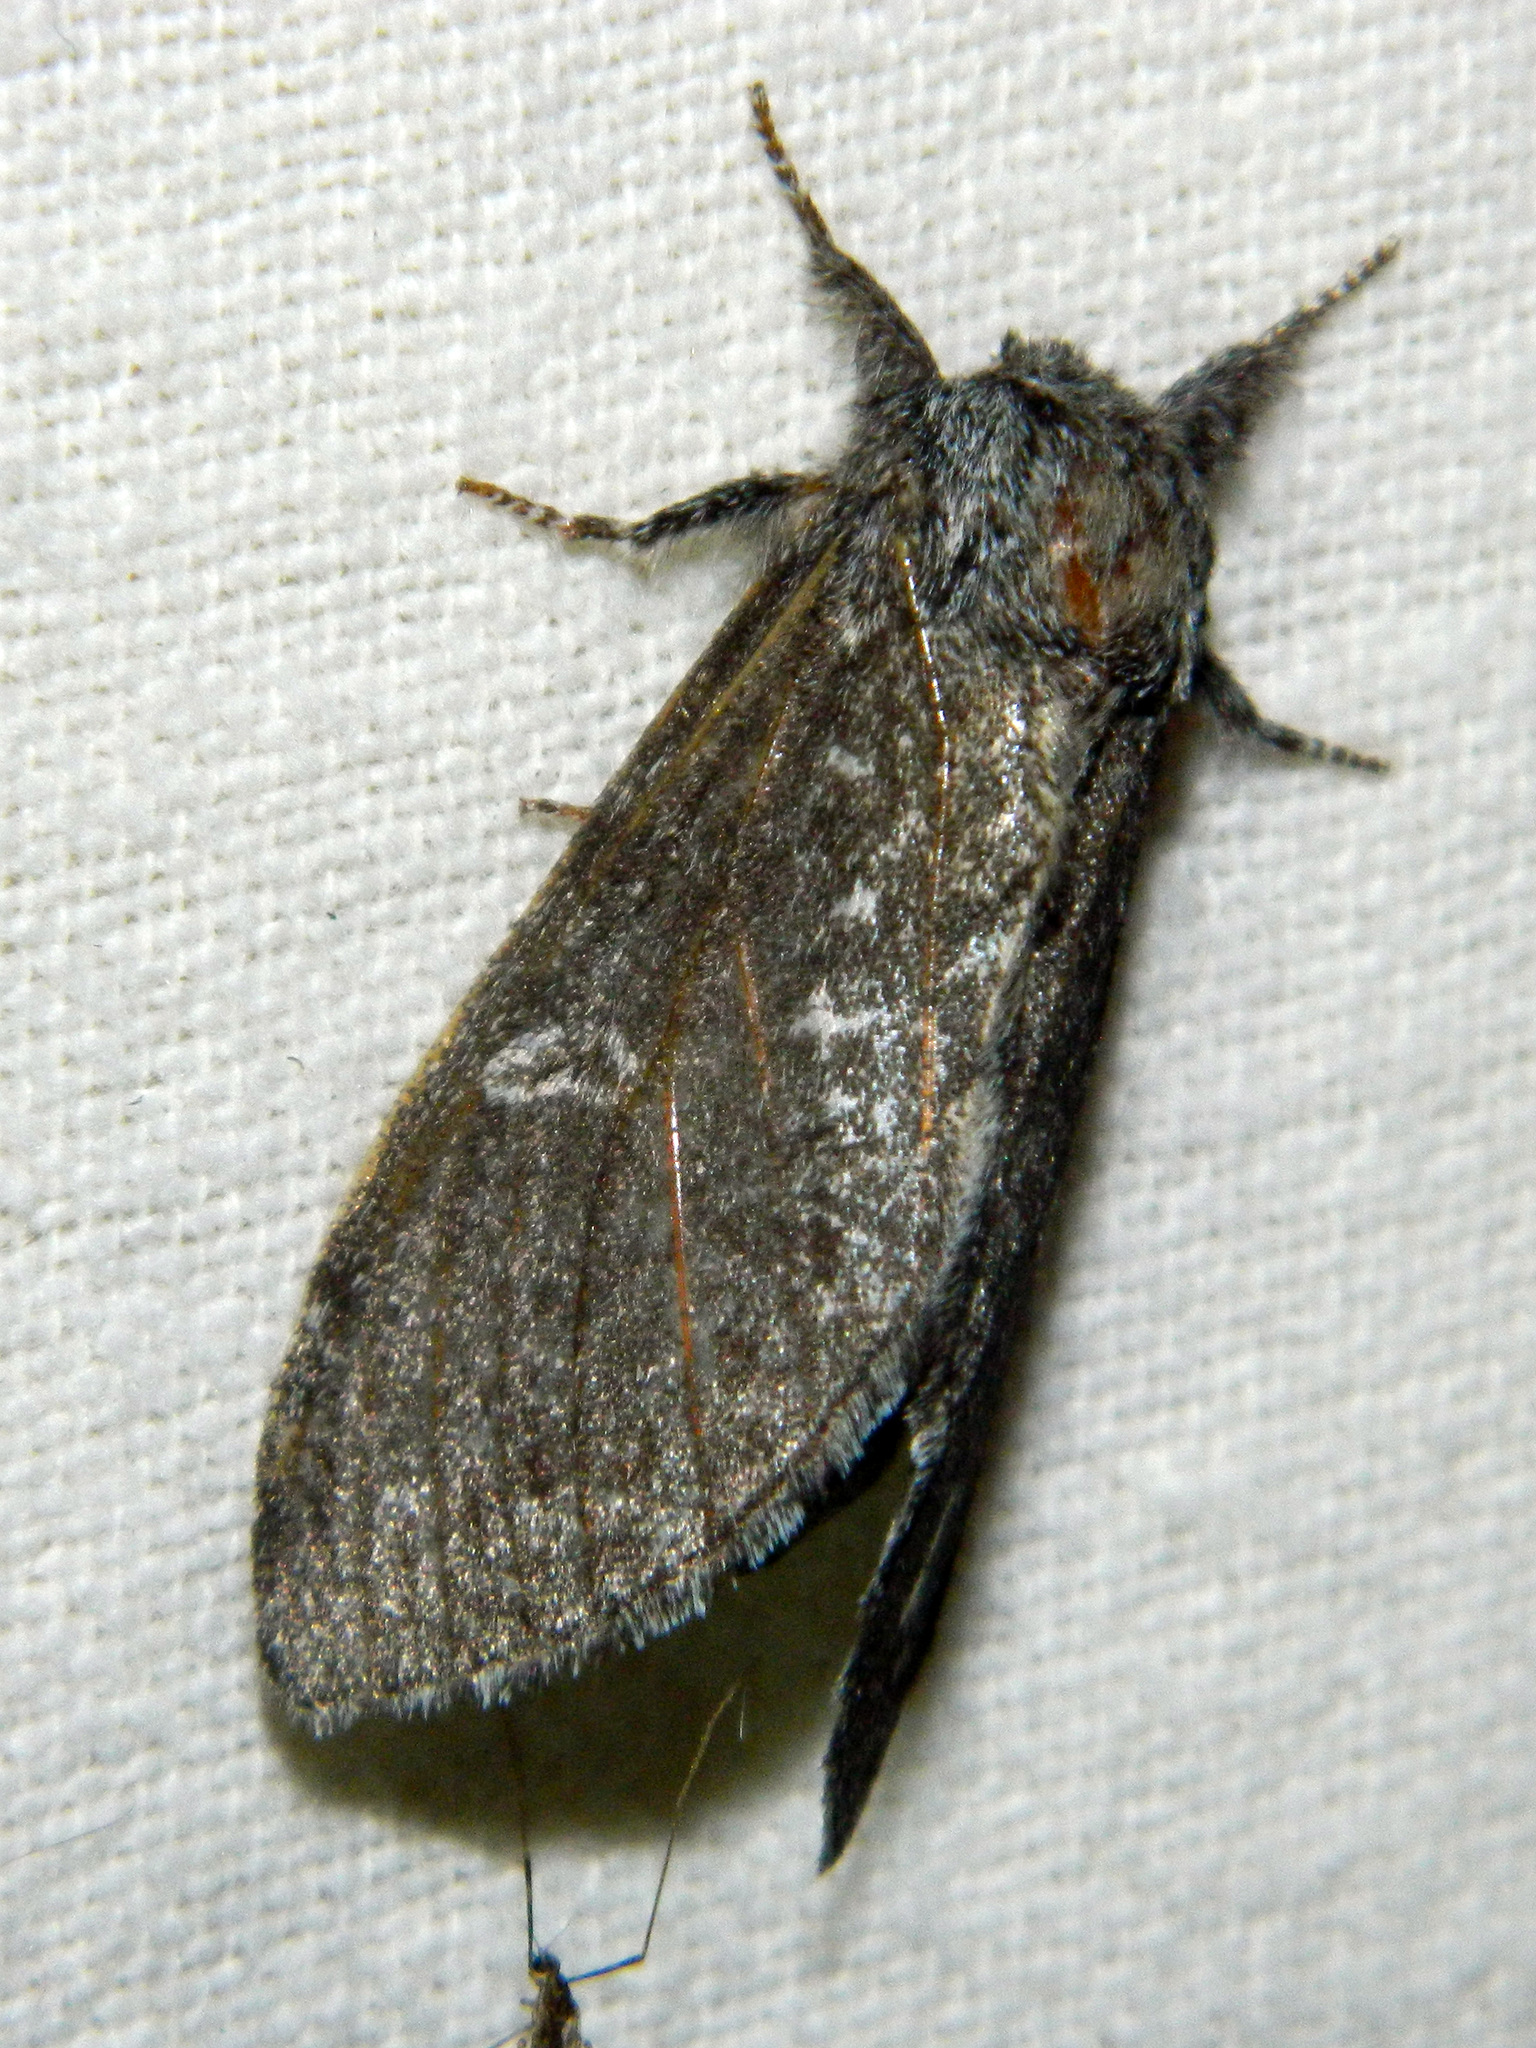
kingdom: Animalia
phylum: Arthropoda
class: Insecta
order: Lepidoptera
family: Notodontidae
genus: Notodonta
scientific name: Notodonta torva
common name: Large dark prominent
